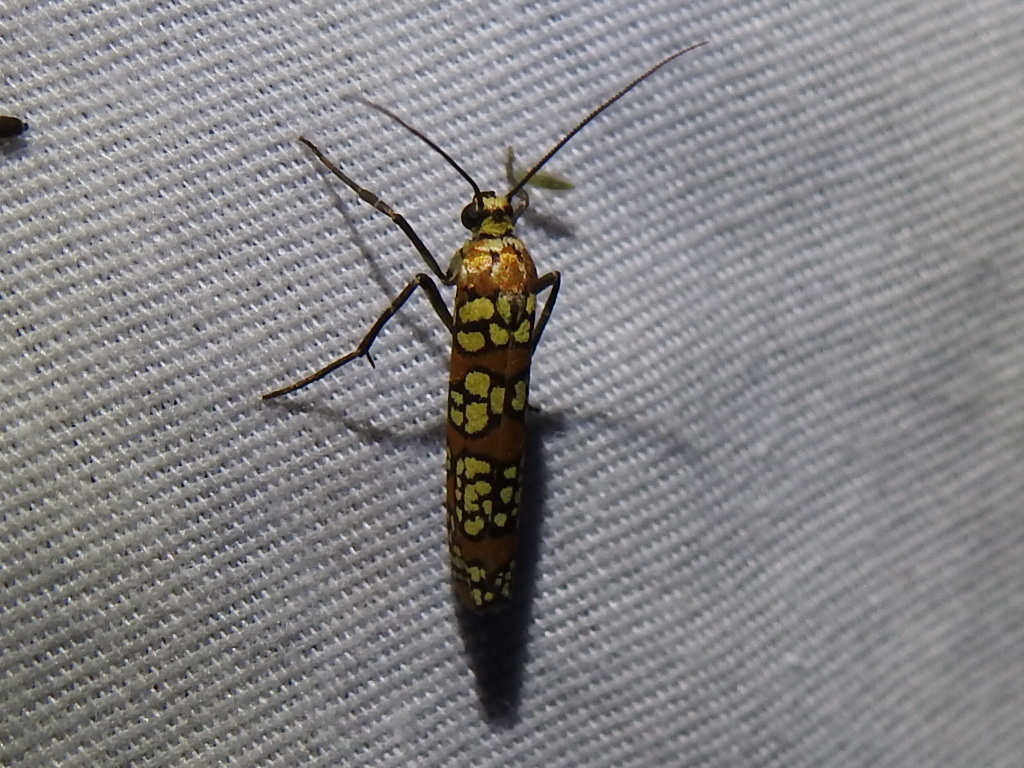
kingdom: Animalia
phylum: Arthropoda
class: Insecta
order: Lepidoptera
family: Attevidae
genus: Atteva
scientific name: Atteva punctella
